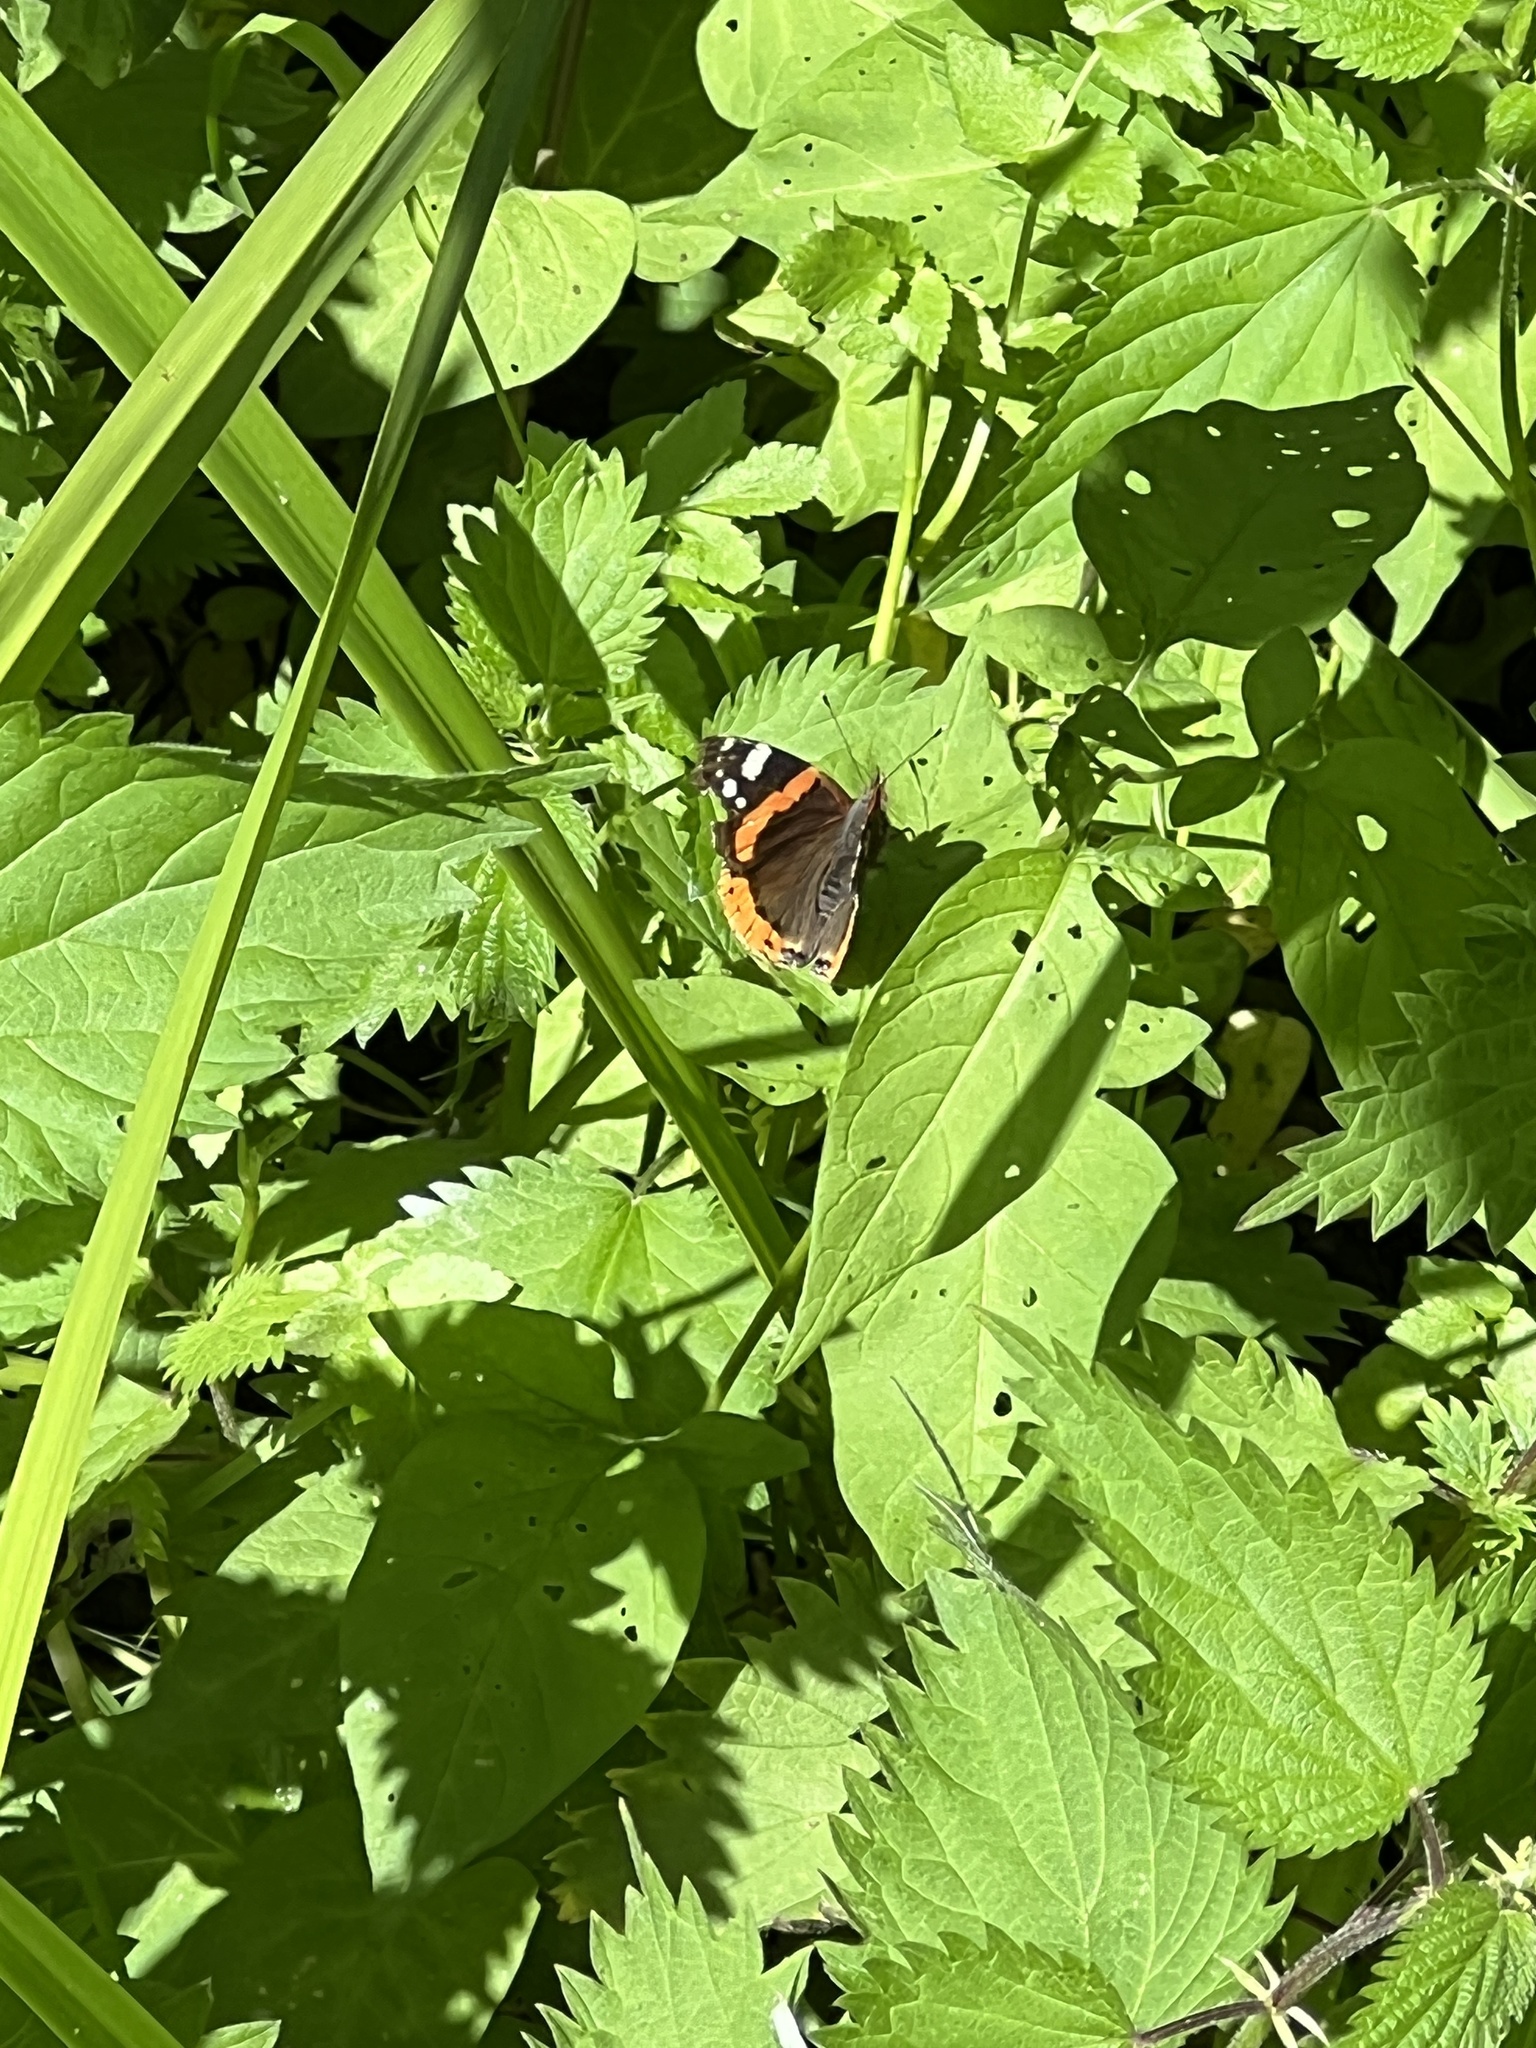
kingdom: Animalia
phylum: Arthropoda
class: Insecta
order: Lepidoptera
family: Nymphalidae
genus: Vanessa
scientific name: Vanessa atalanta
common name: Red admiral
